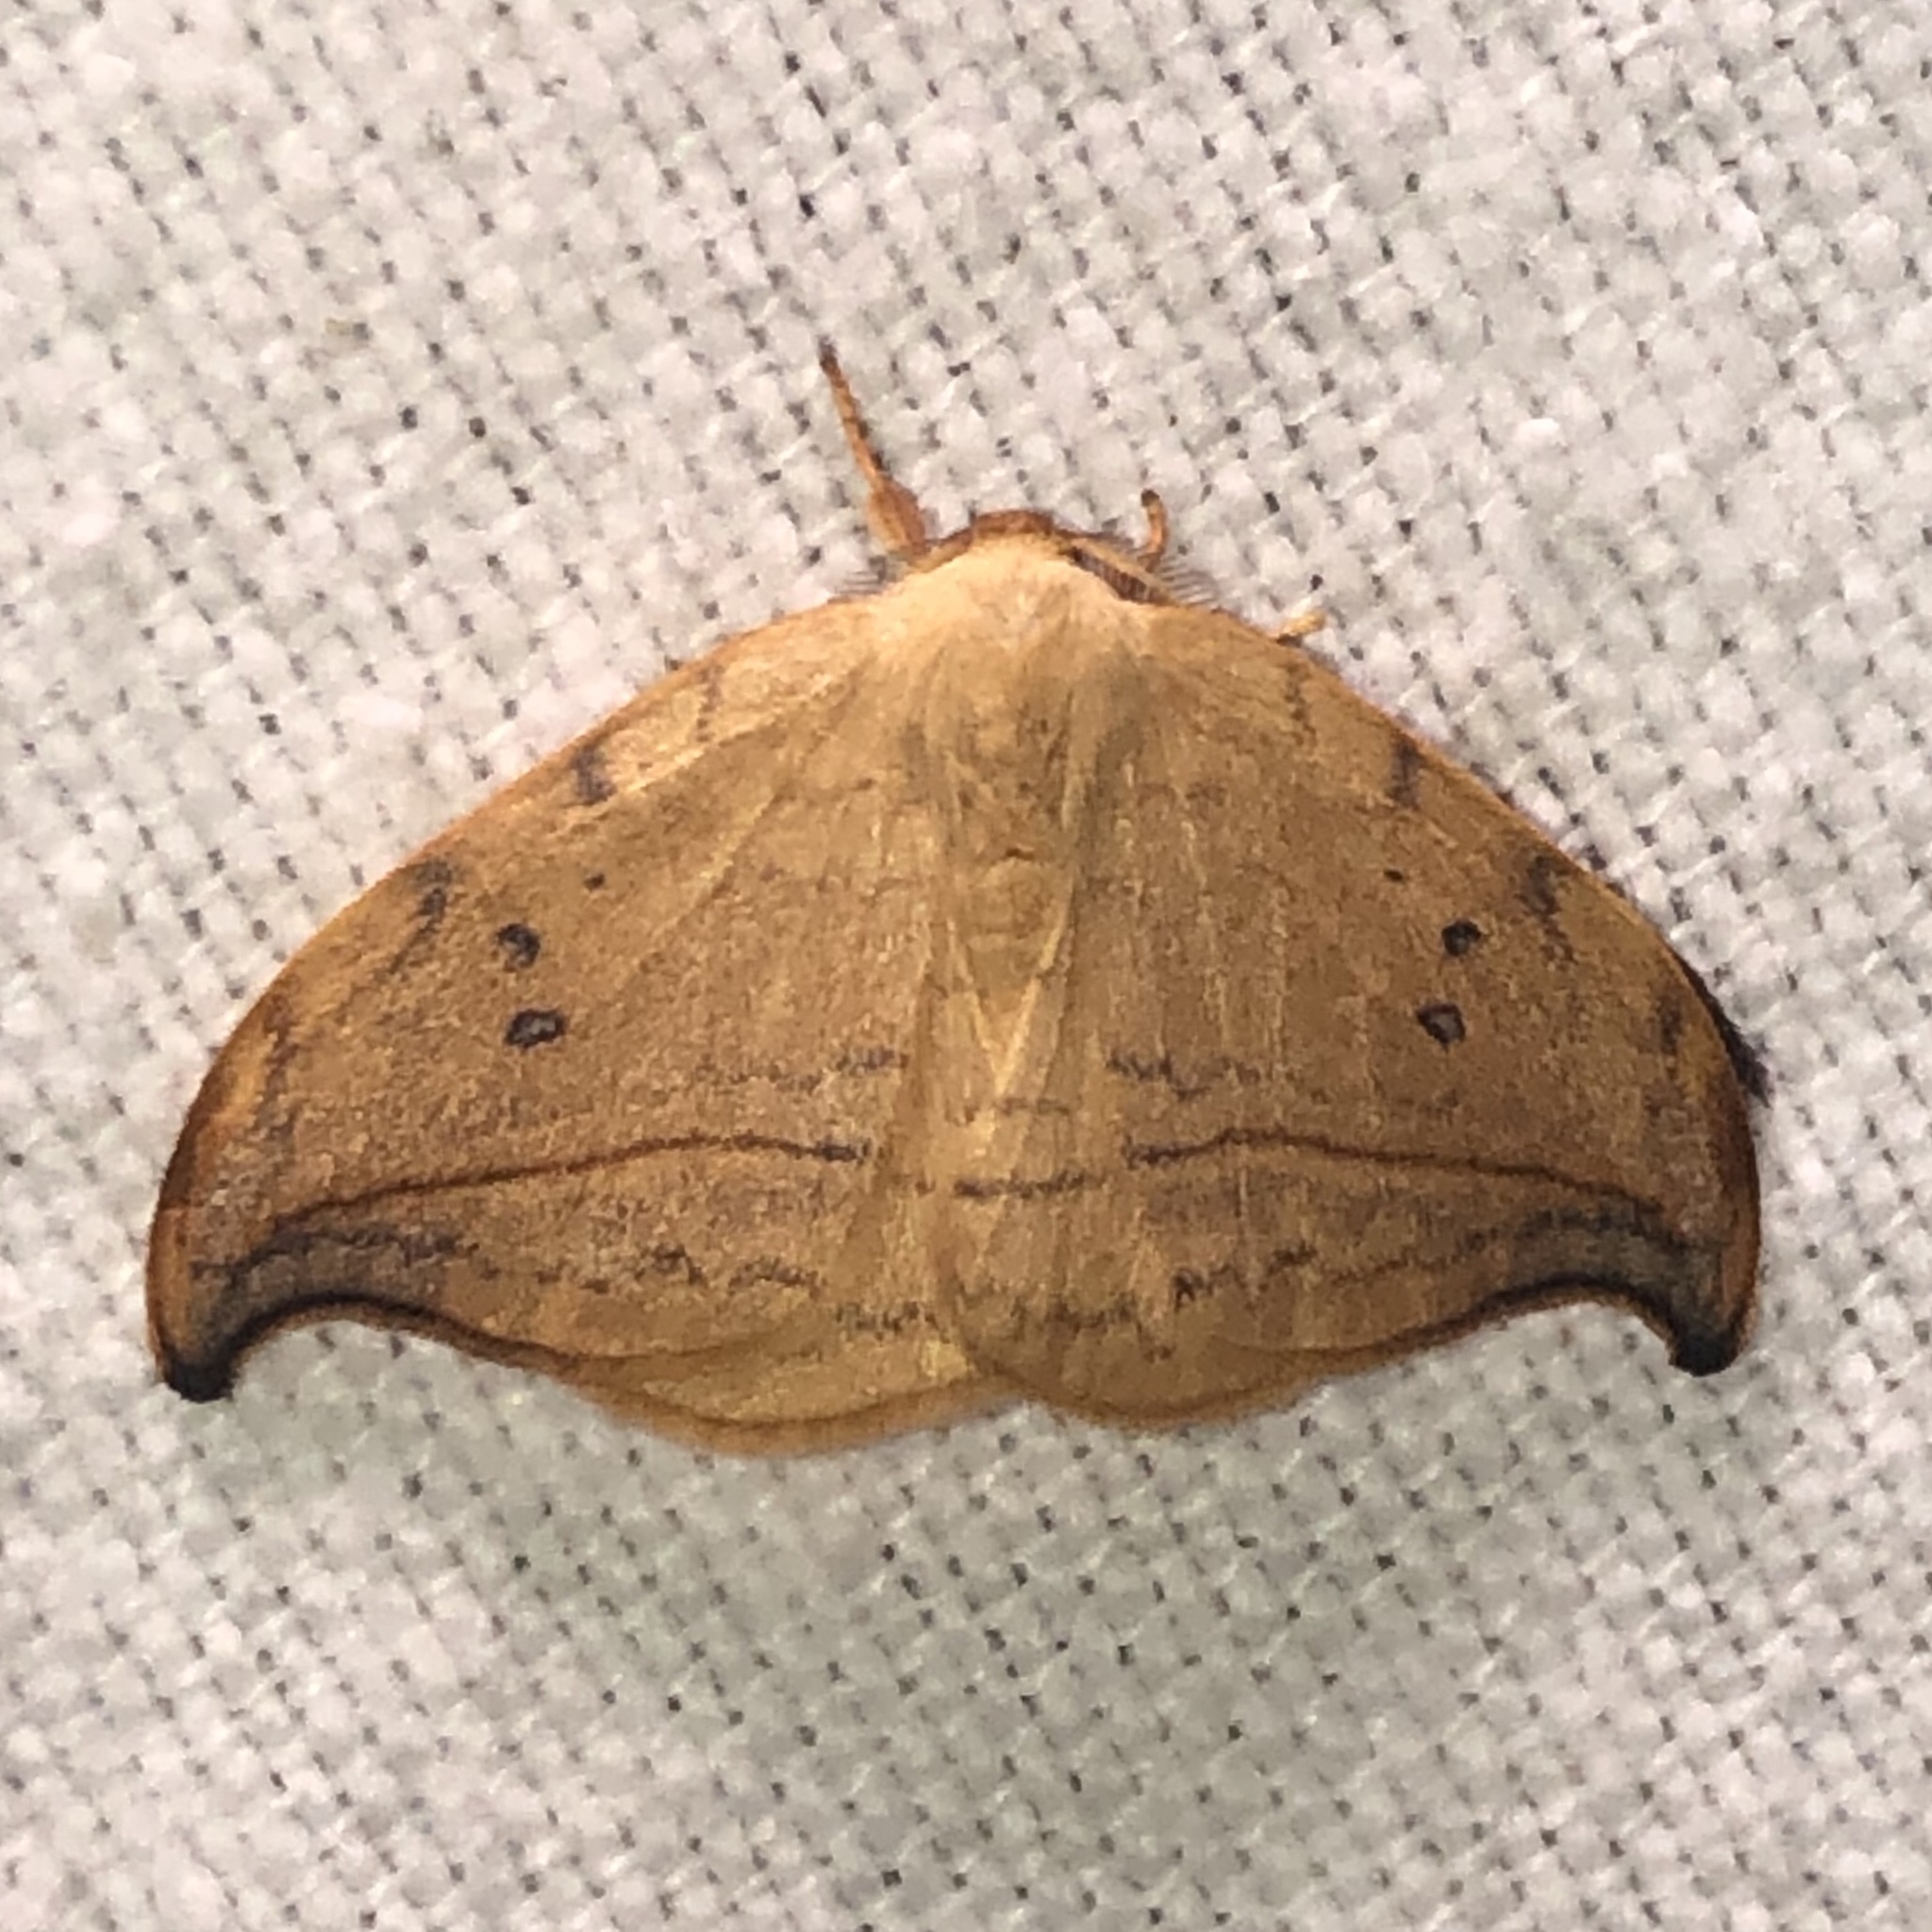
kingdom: Animalia
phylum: Arthropoda
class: Insecta
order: Lepidoptera
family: Drepanidae
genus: Drepana
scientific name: Drepana arcuata
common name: Arched hooktip moth
